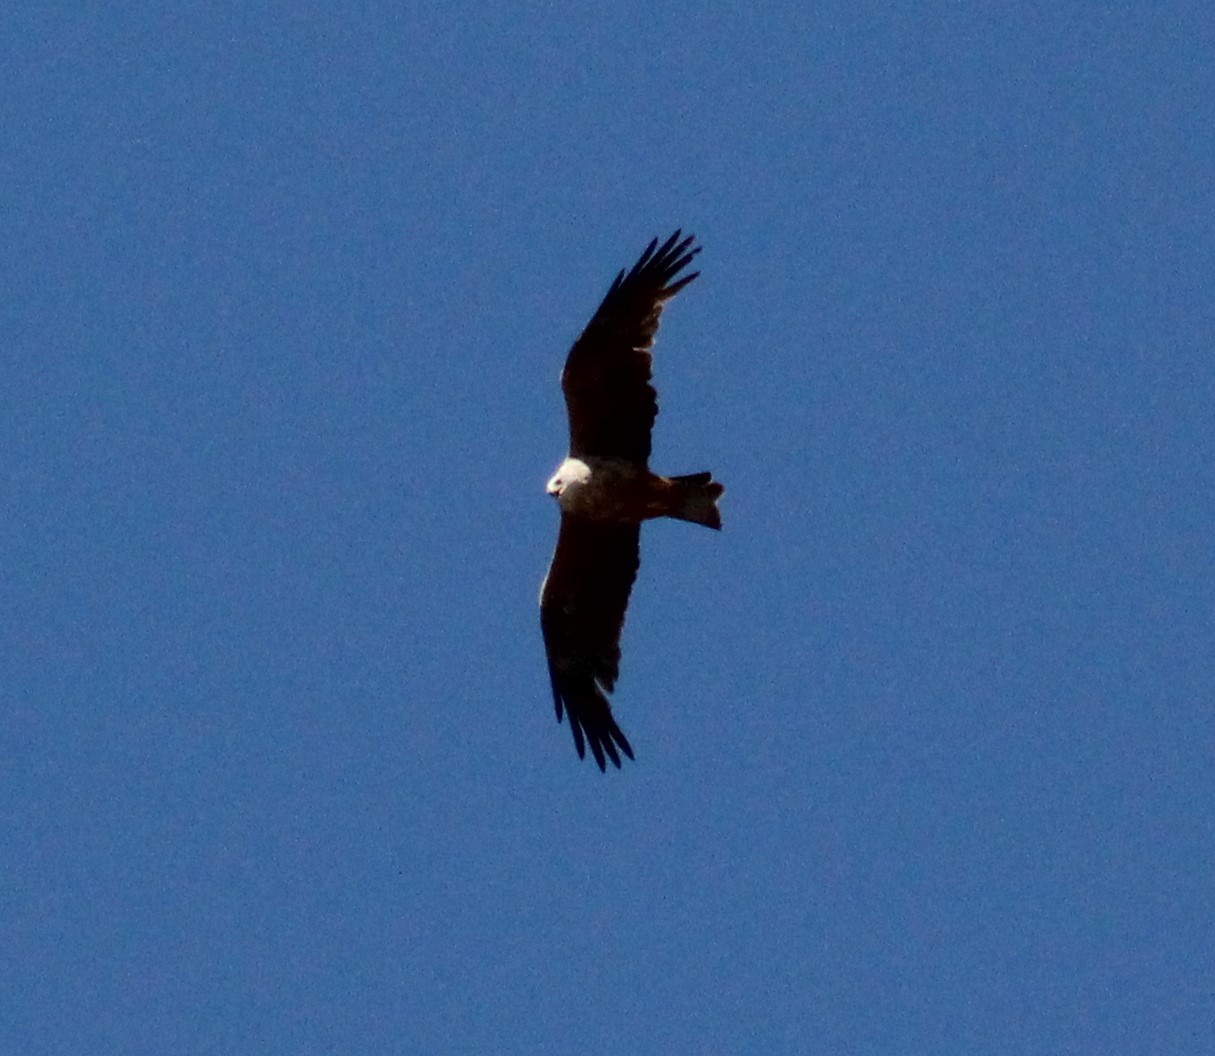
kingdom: Animalia
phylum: Chordata
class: Aves
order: Accipitriformes
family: Accipitridae
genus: Milvus
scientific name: Milvus migrans
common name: Black kite
